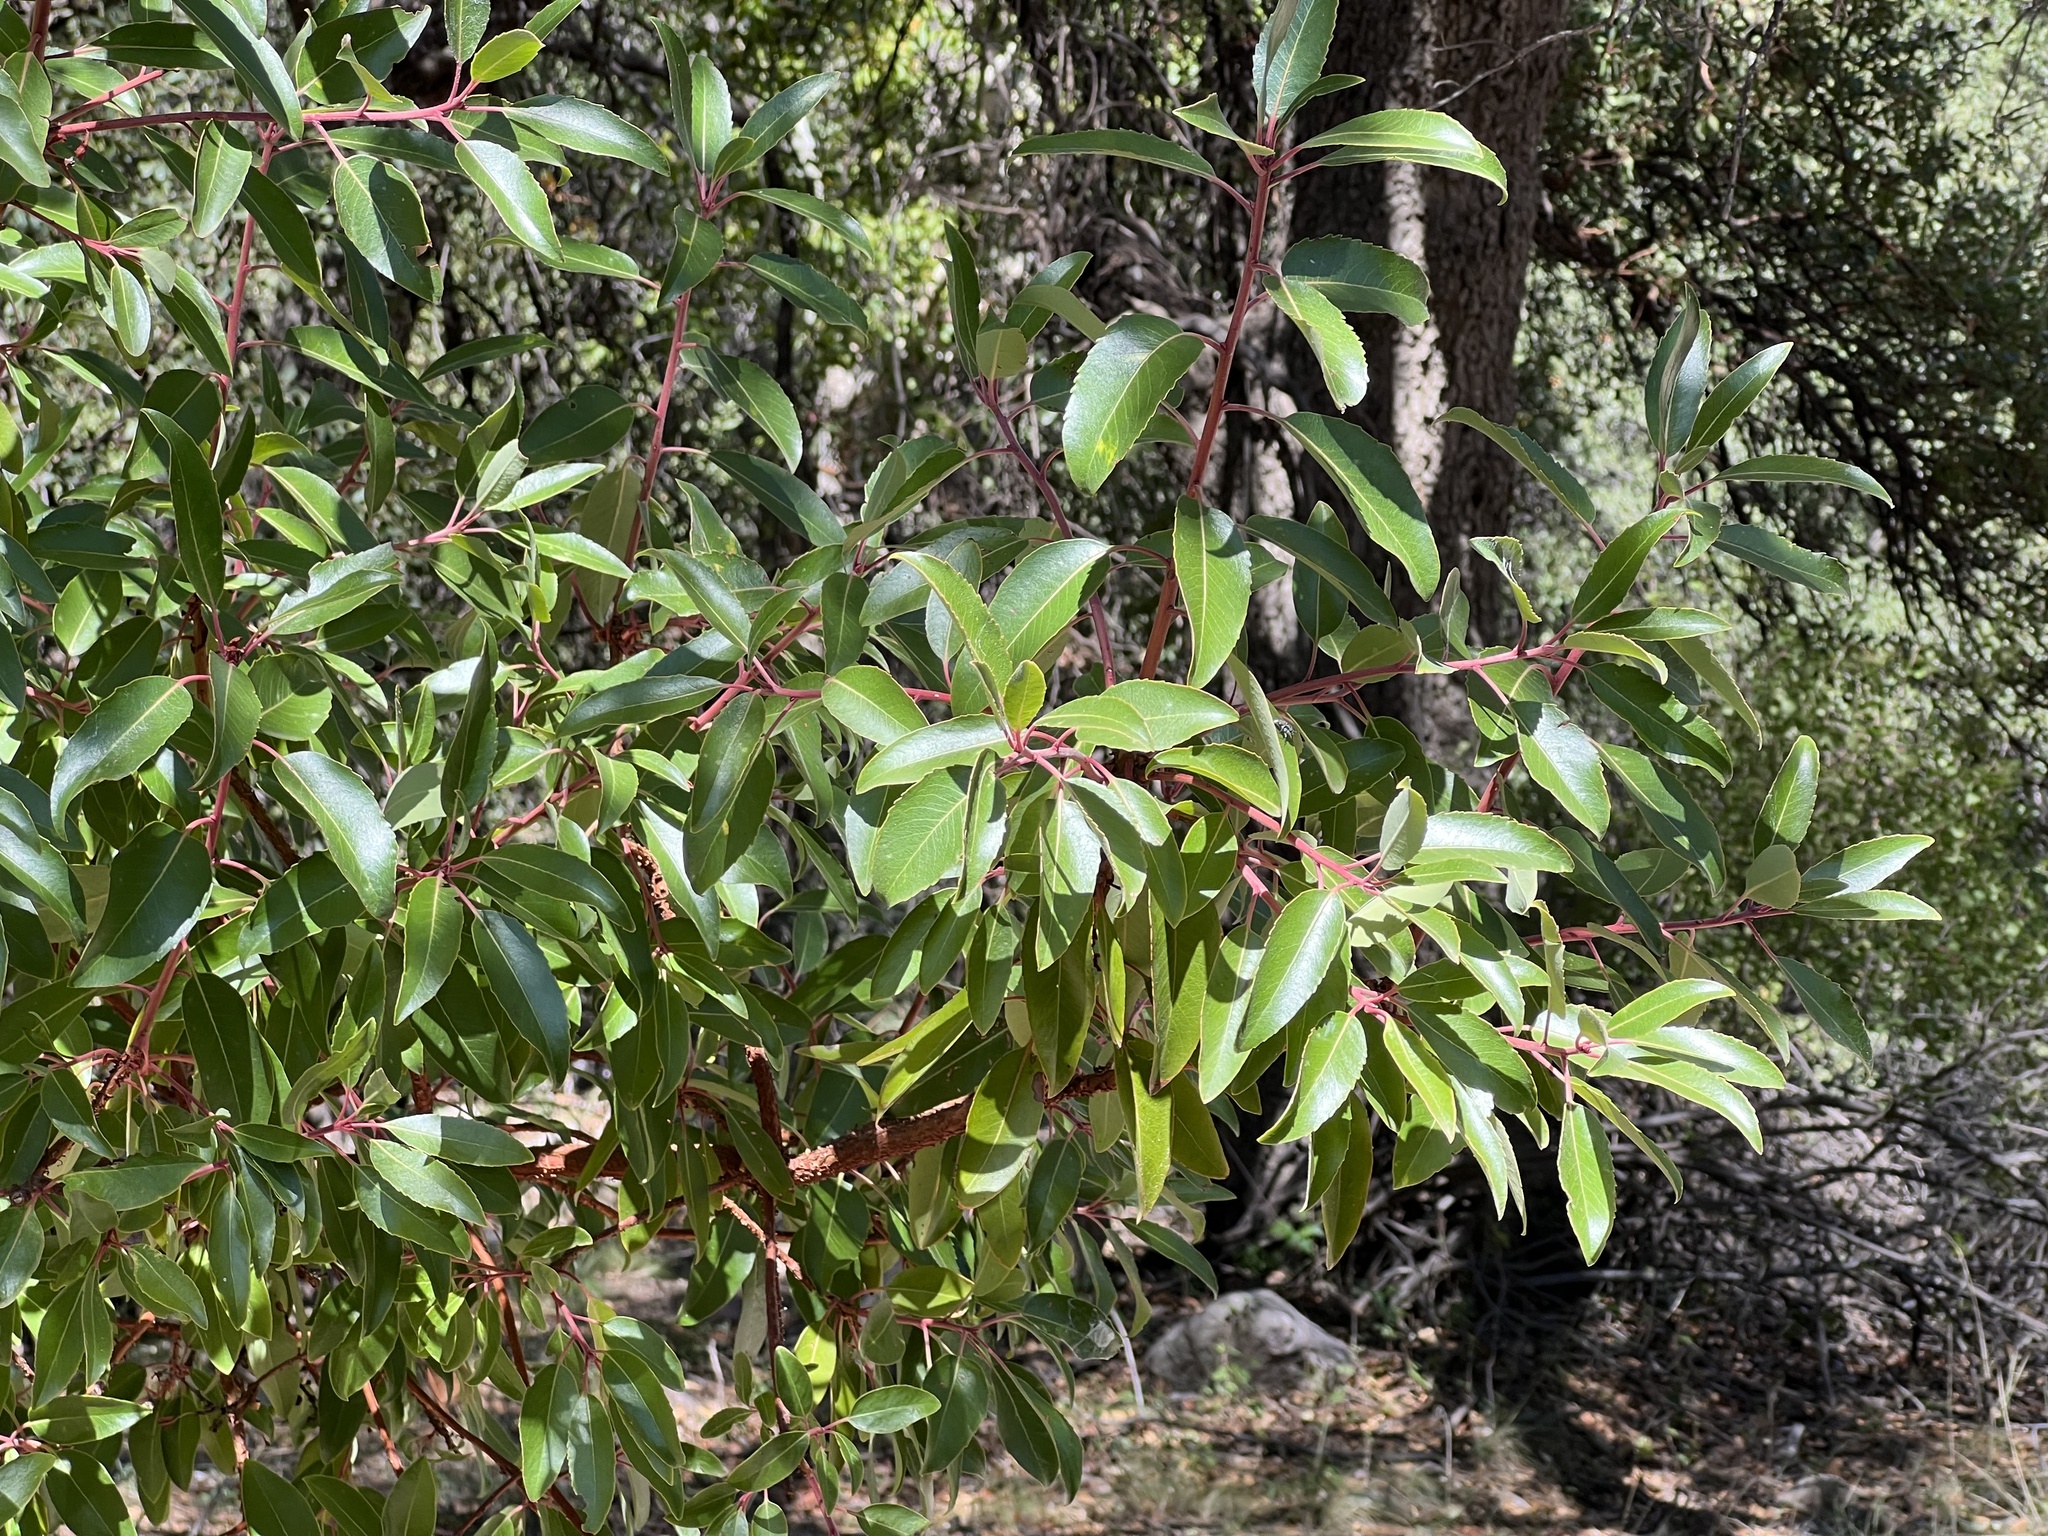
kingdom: Plantae
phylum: Tracheophyta
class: Magnoliopsida
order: Ericales
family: Ericaceae
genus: Arbutus
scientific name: Arbutus arizonica
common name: Arizona madrone
